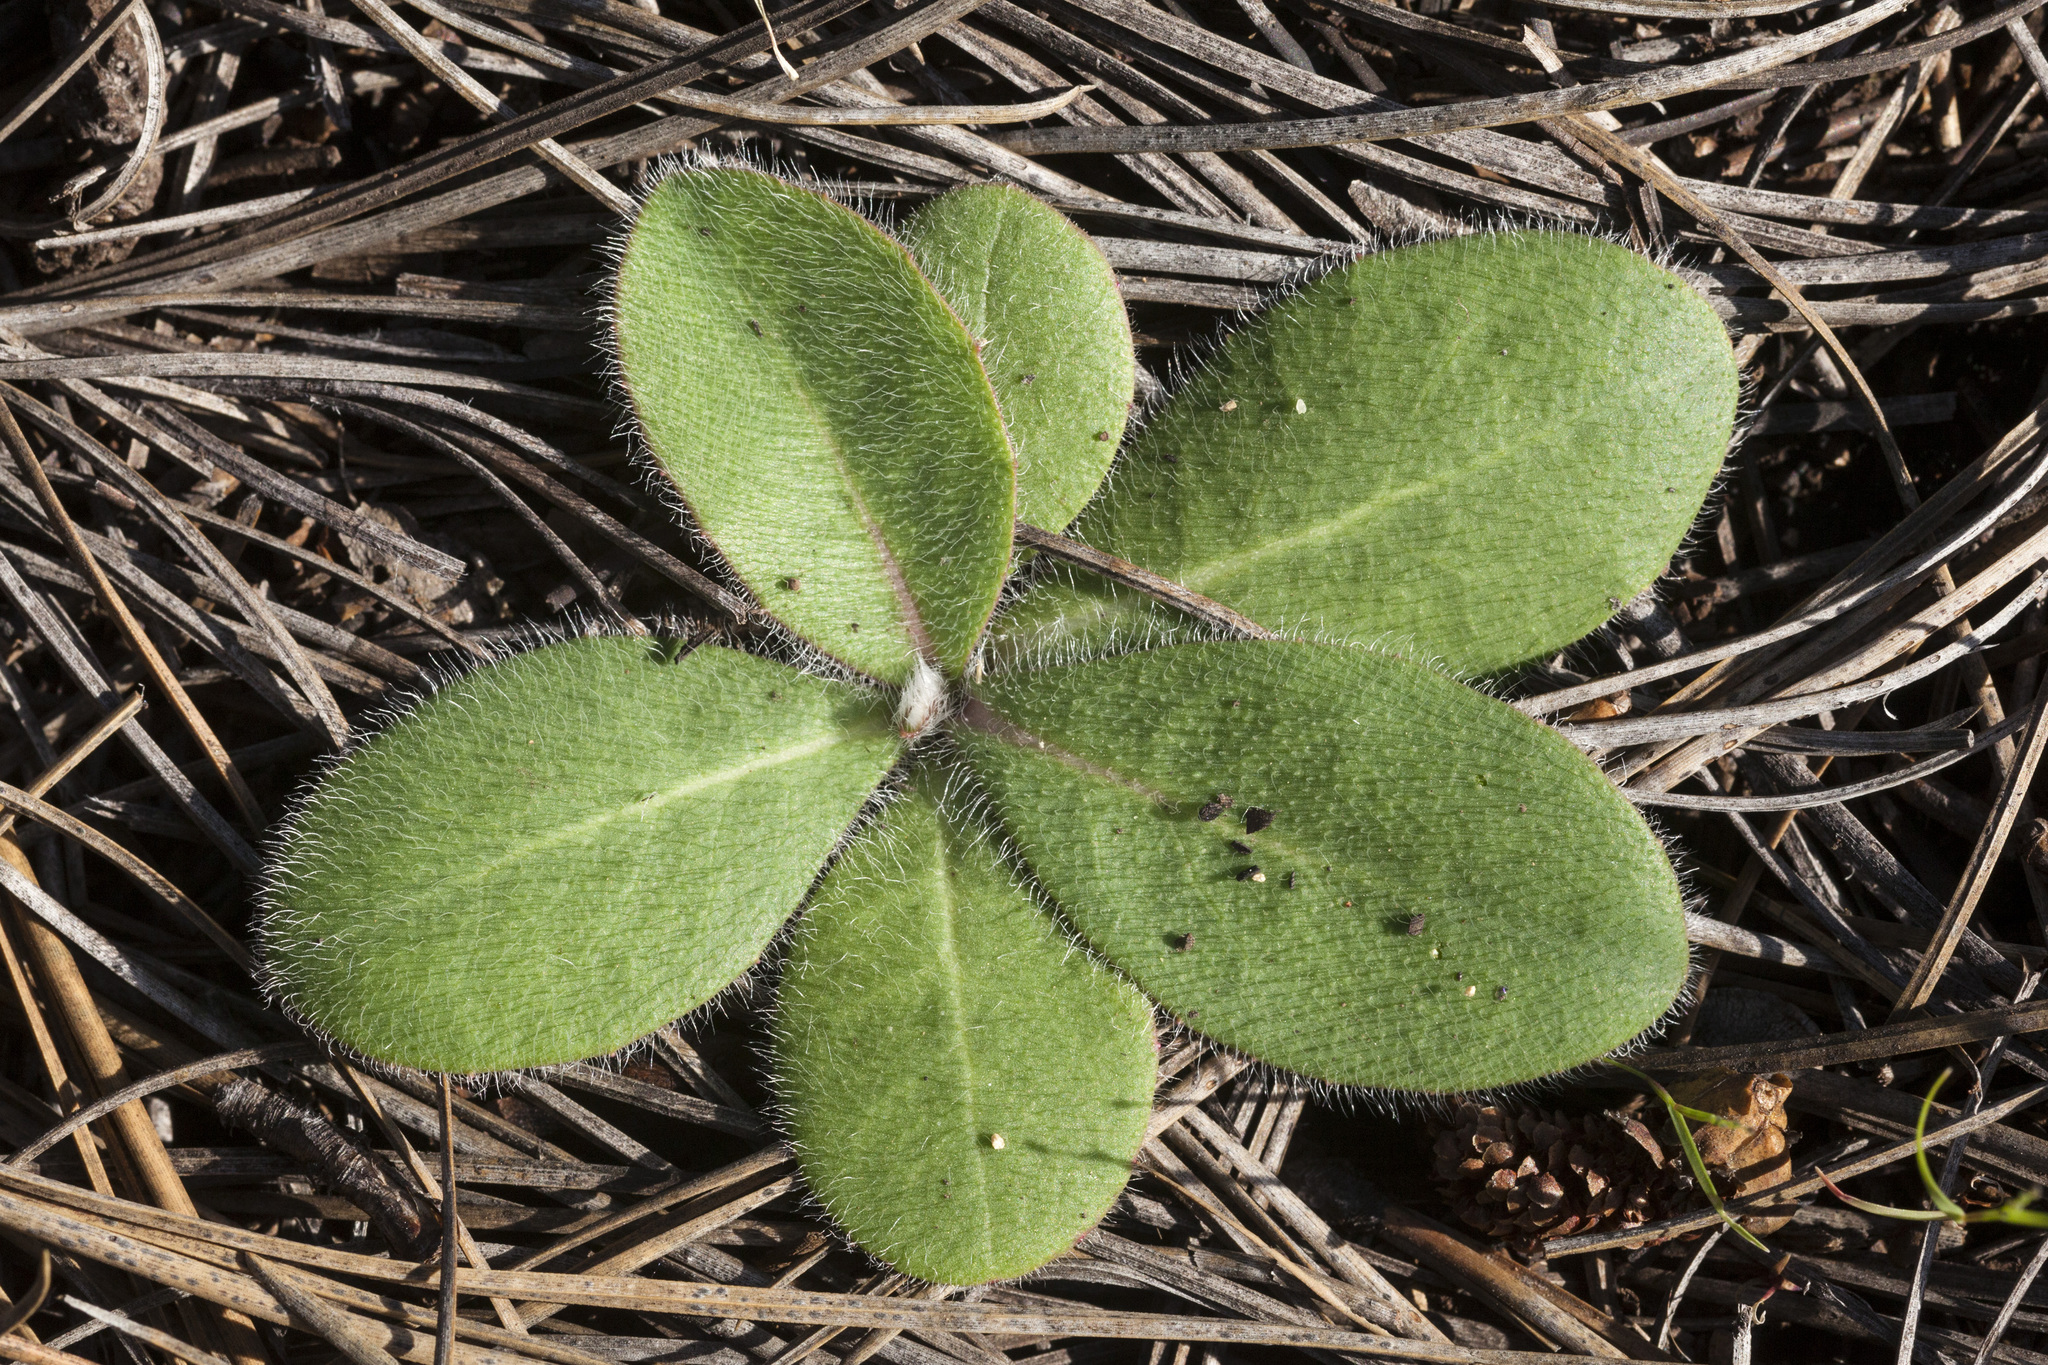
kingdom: Plantae
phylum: Tracheophyta
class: Magnoliopsida
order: Asterales
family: Asteraceae
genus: Hieracium
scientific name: Hieracium fendleri
